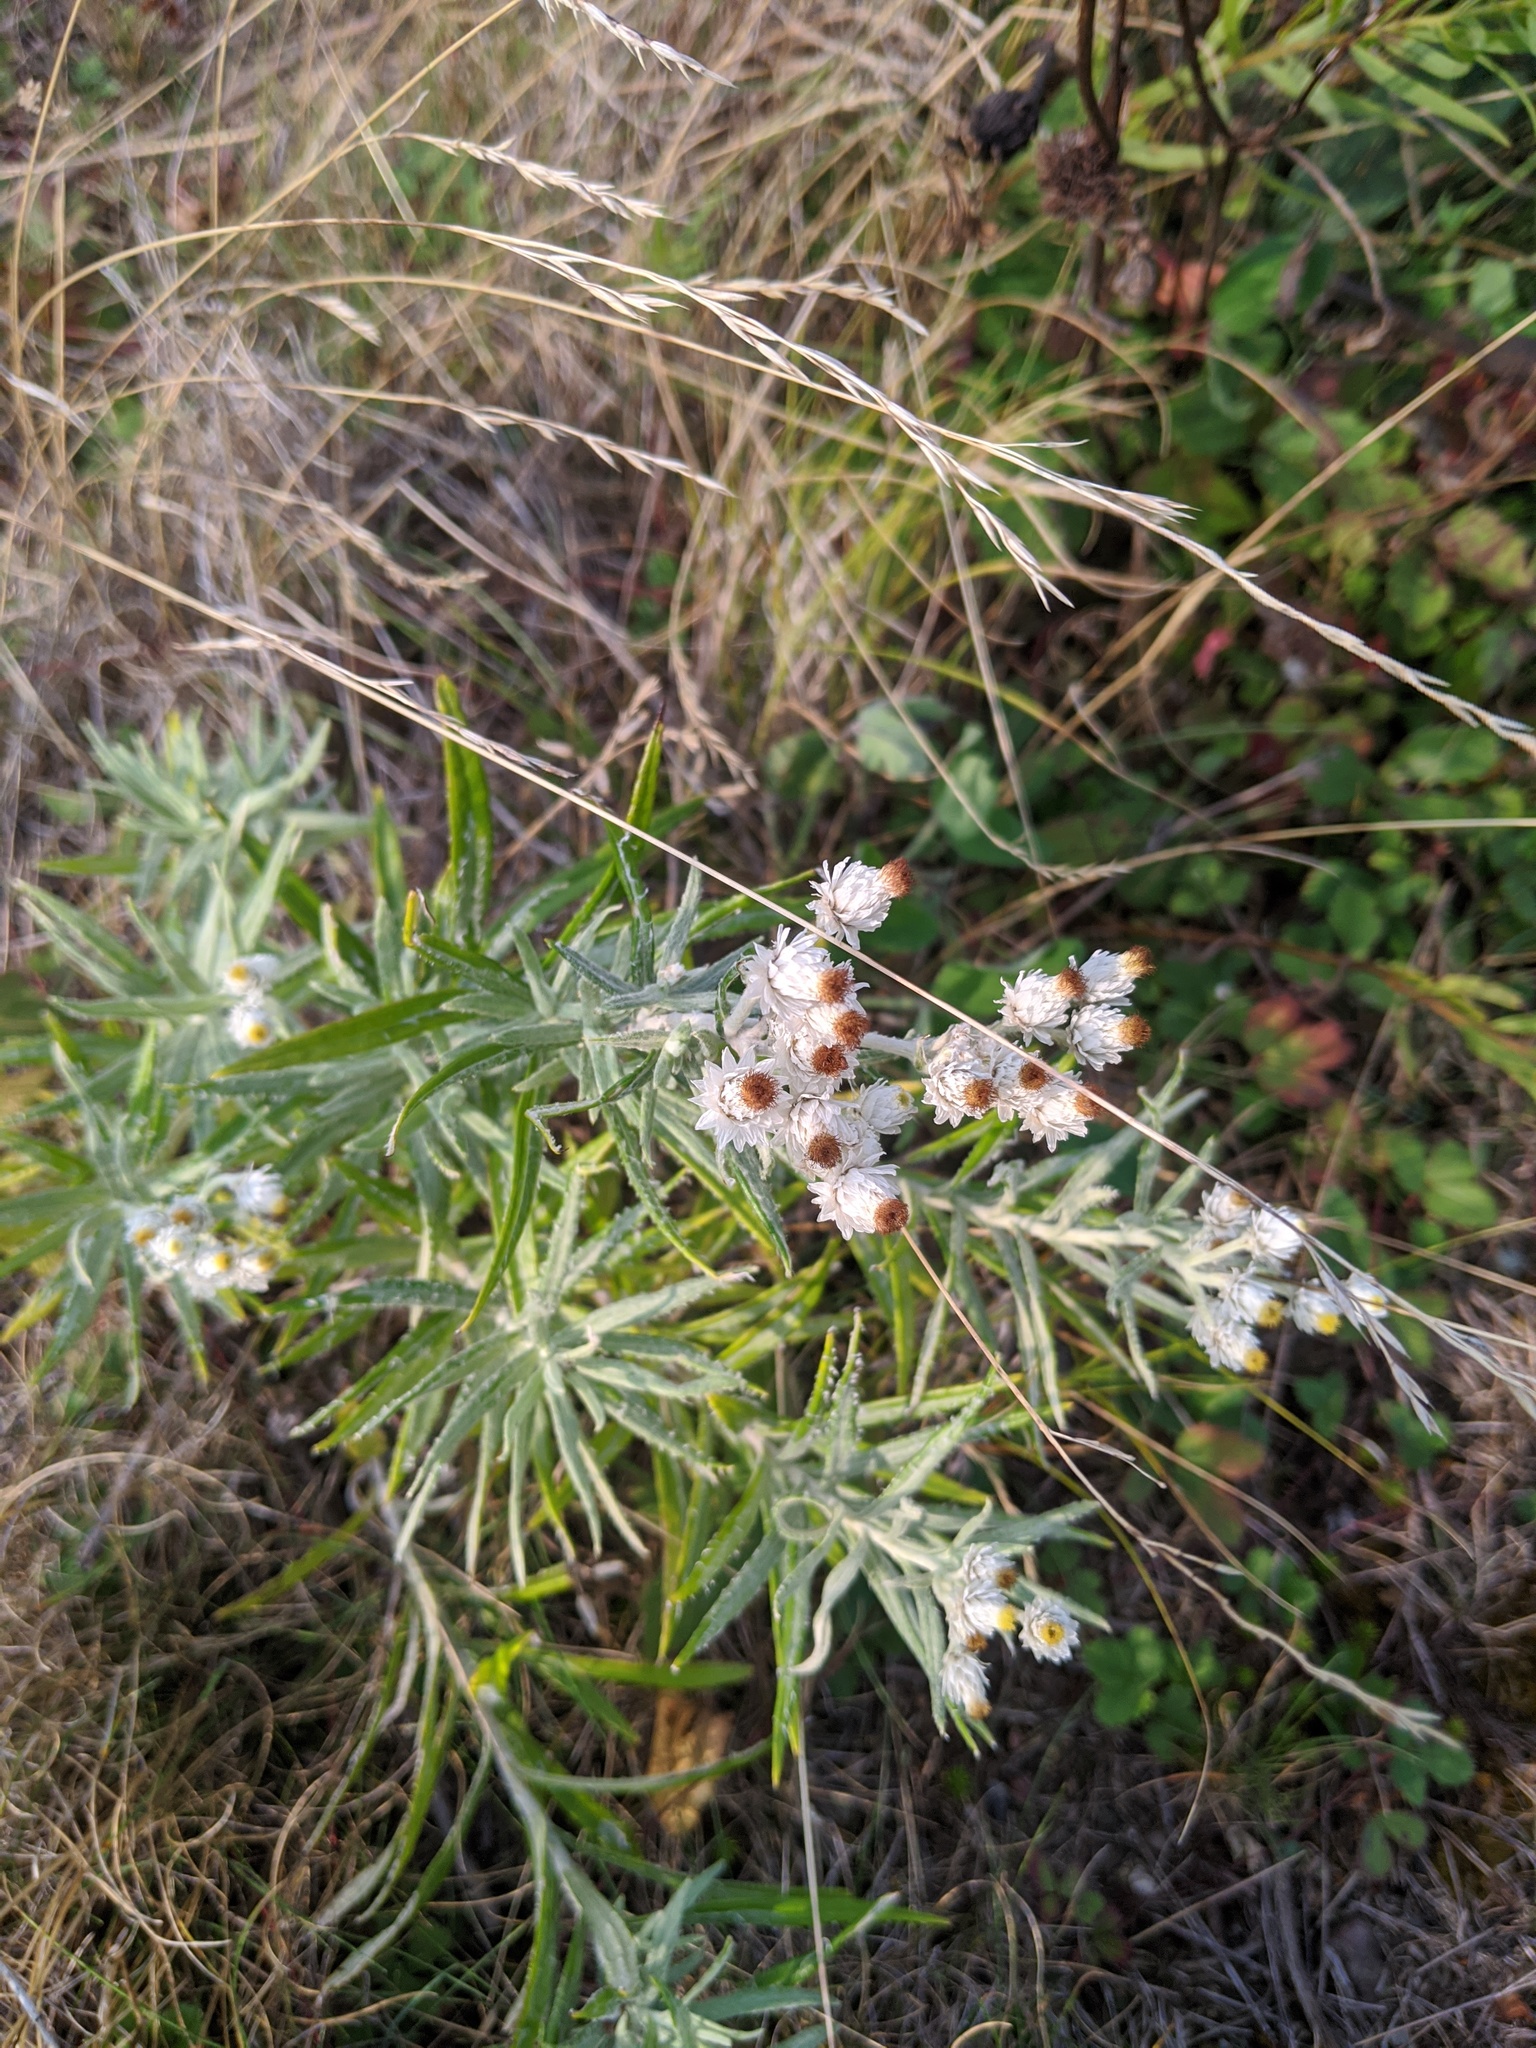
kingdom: Plantae
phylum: Tracheophyta
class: Magnoliopsida
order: Asterales
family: Asteraceae
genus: Anaphalis
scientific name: Anaphalis margaritacea
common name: Pearly everlasting
